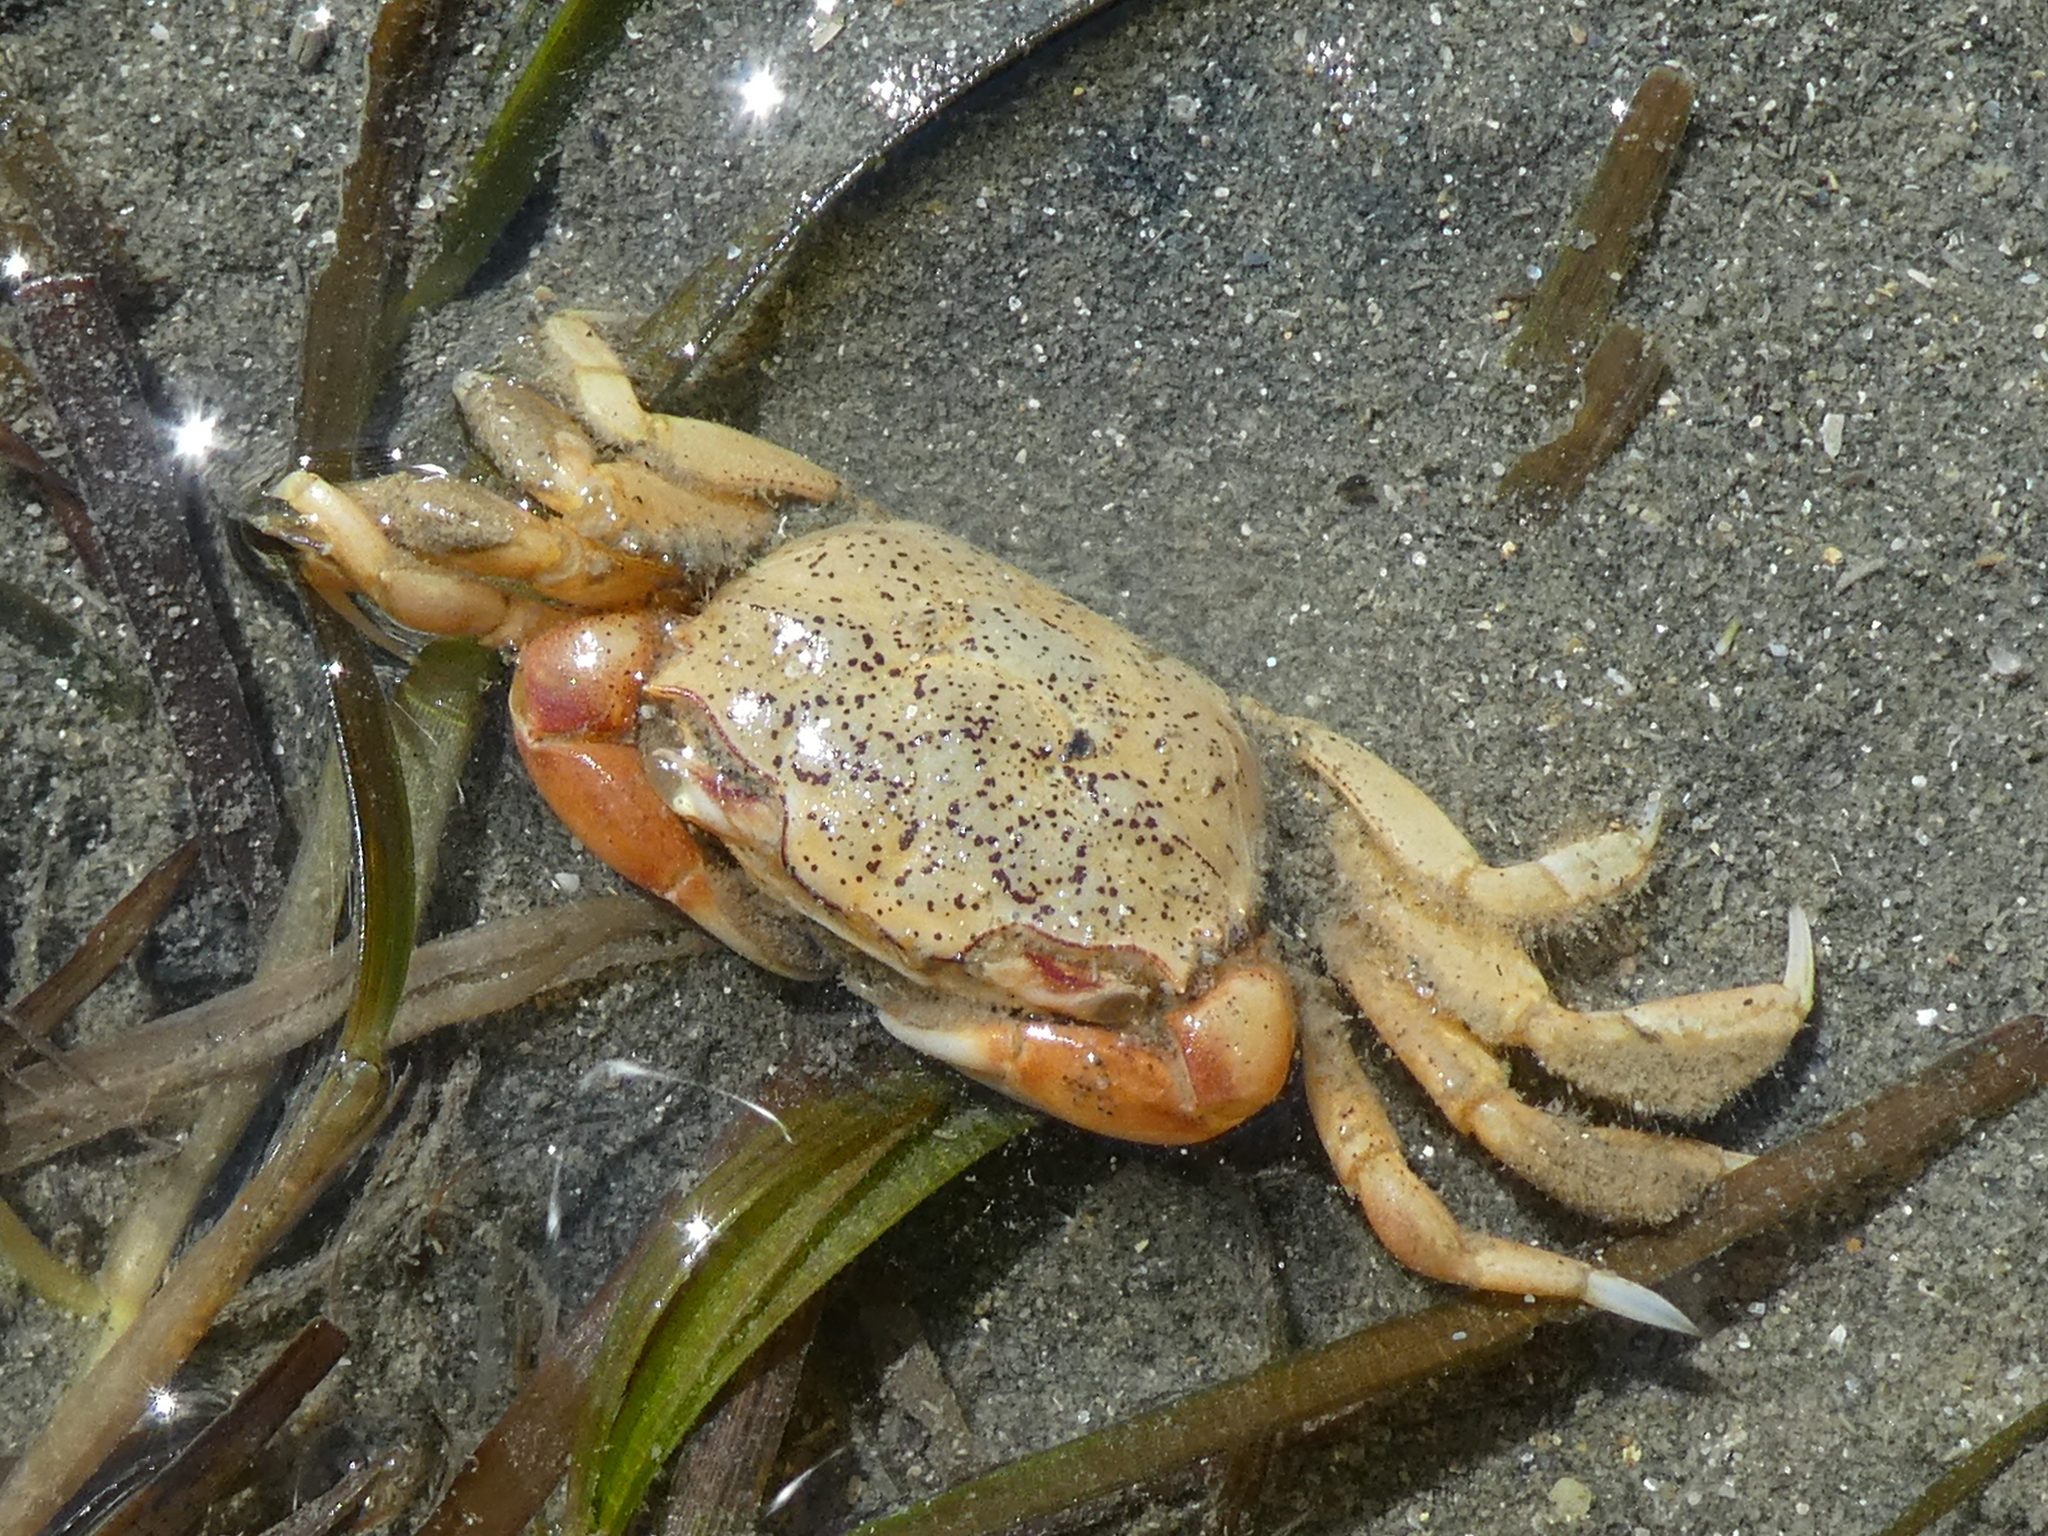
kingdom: Animalia
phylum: Arthropoda
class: Malacostraca
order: Decapoda
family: Macrophthalmidae
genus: Hemiplax
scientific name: Hemiplax hirtipes
